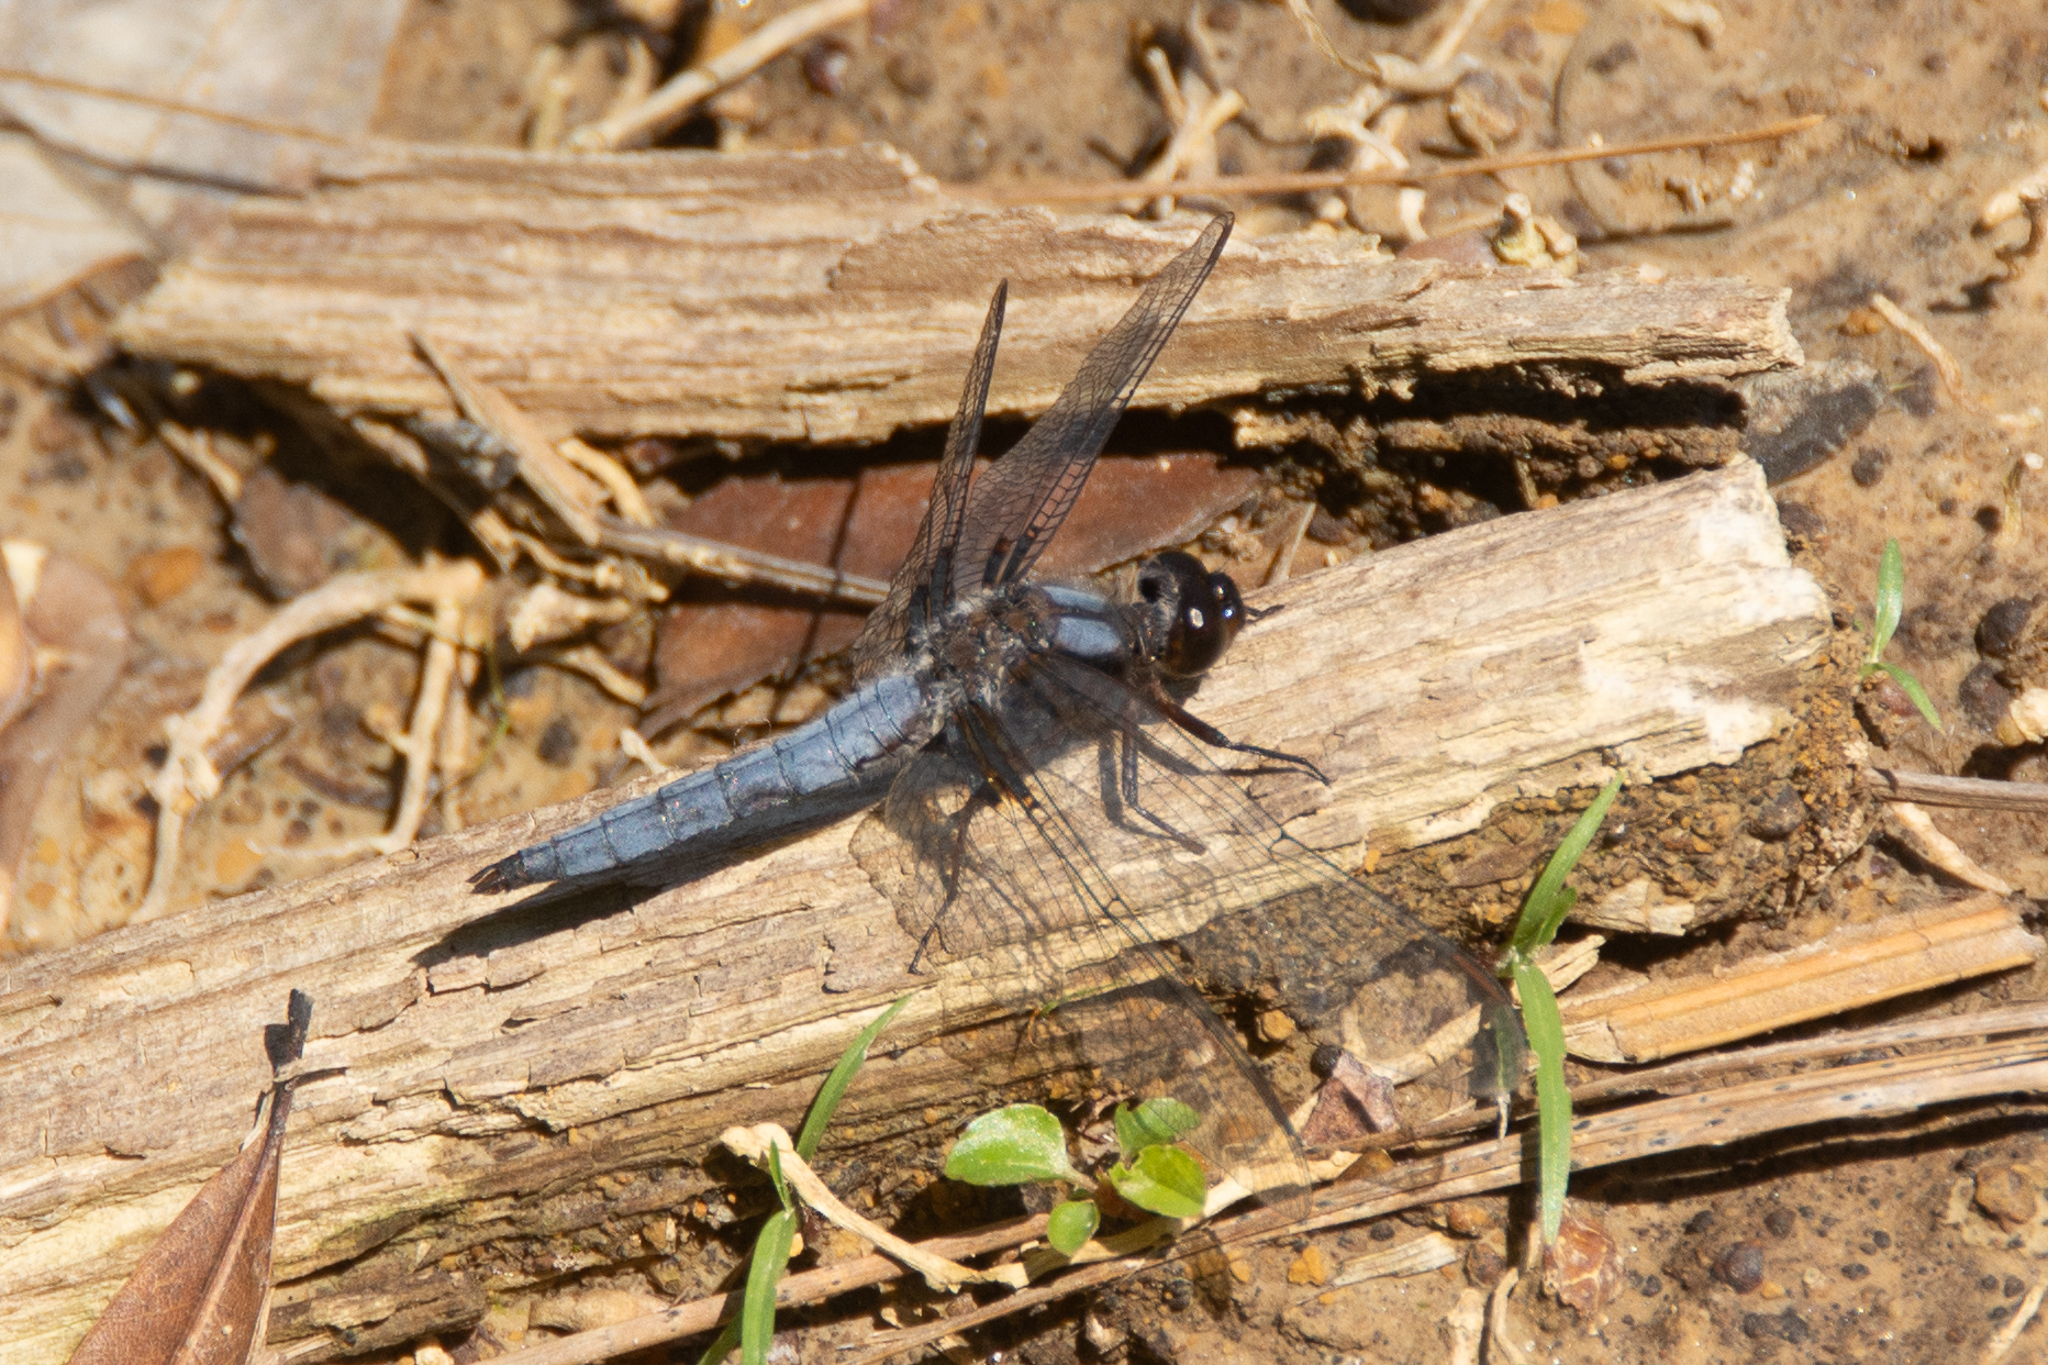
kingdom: Animalia
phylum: Arthropoda
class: Insecta
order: Odonata
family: Libellulidae
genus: Ladona
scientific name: Ladona deplanata
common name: Blue corporal
